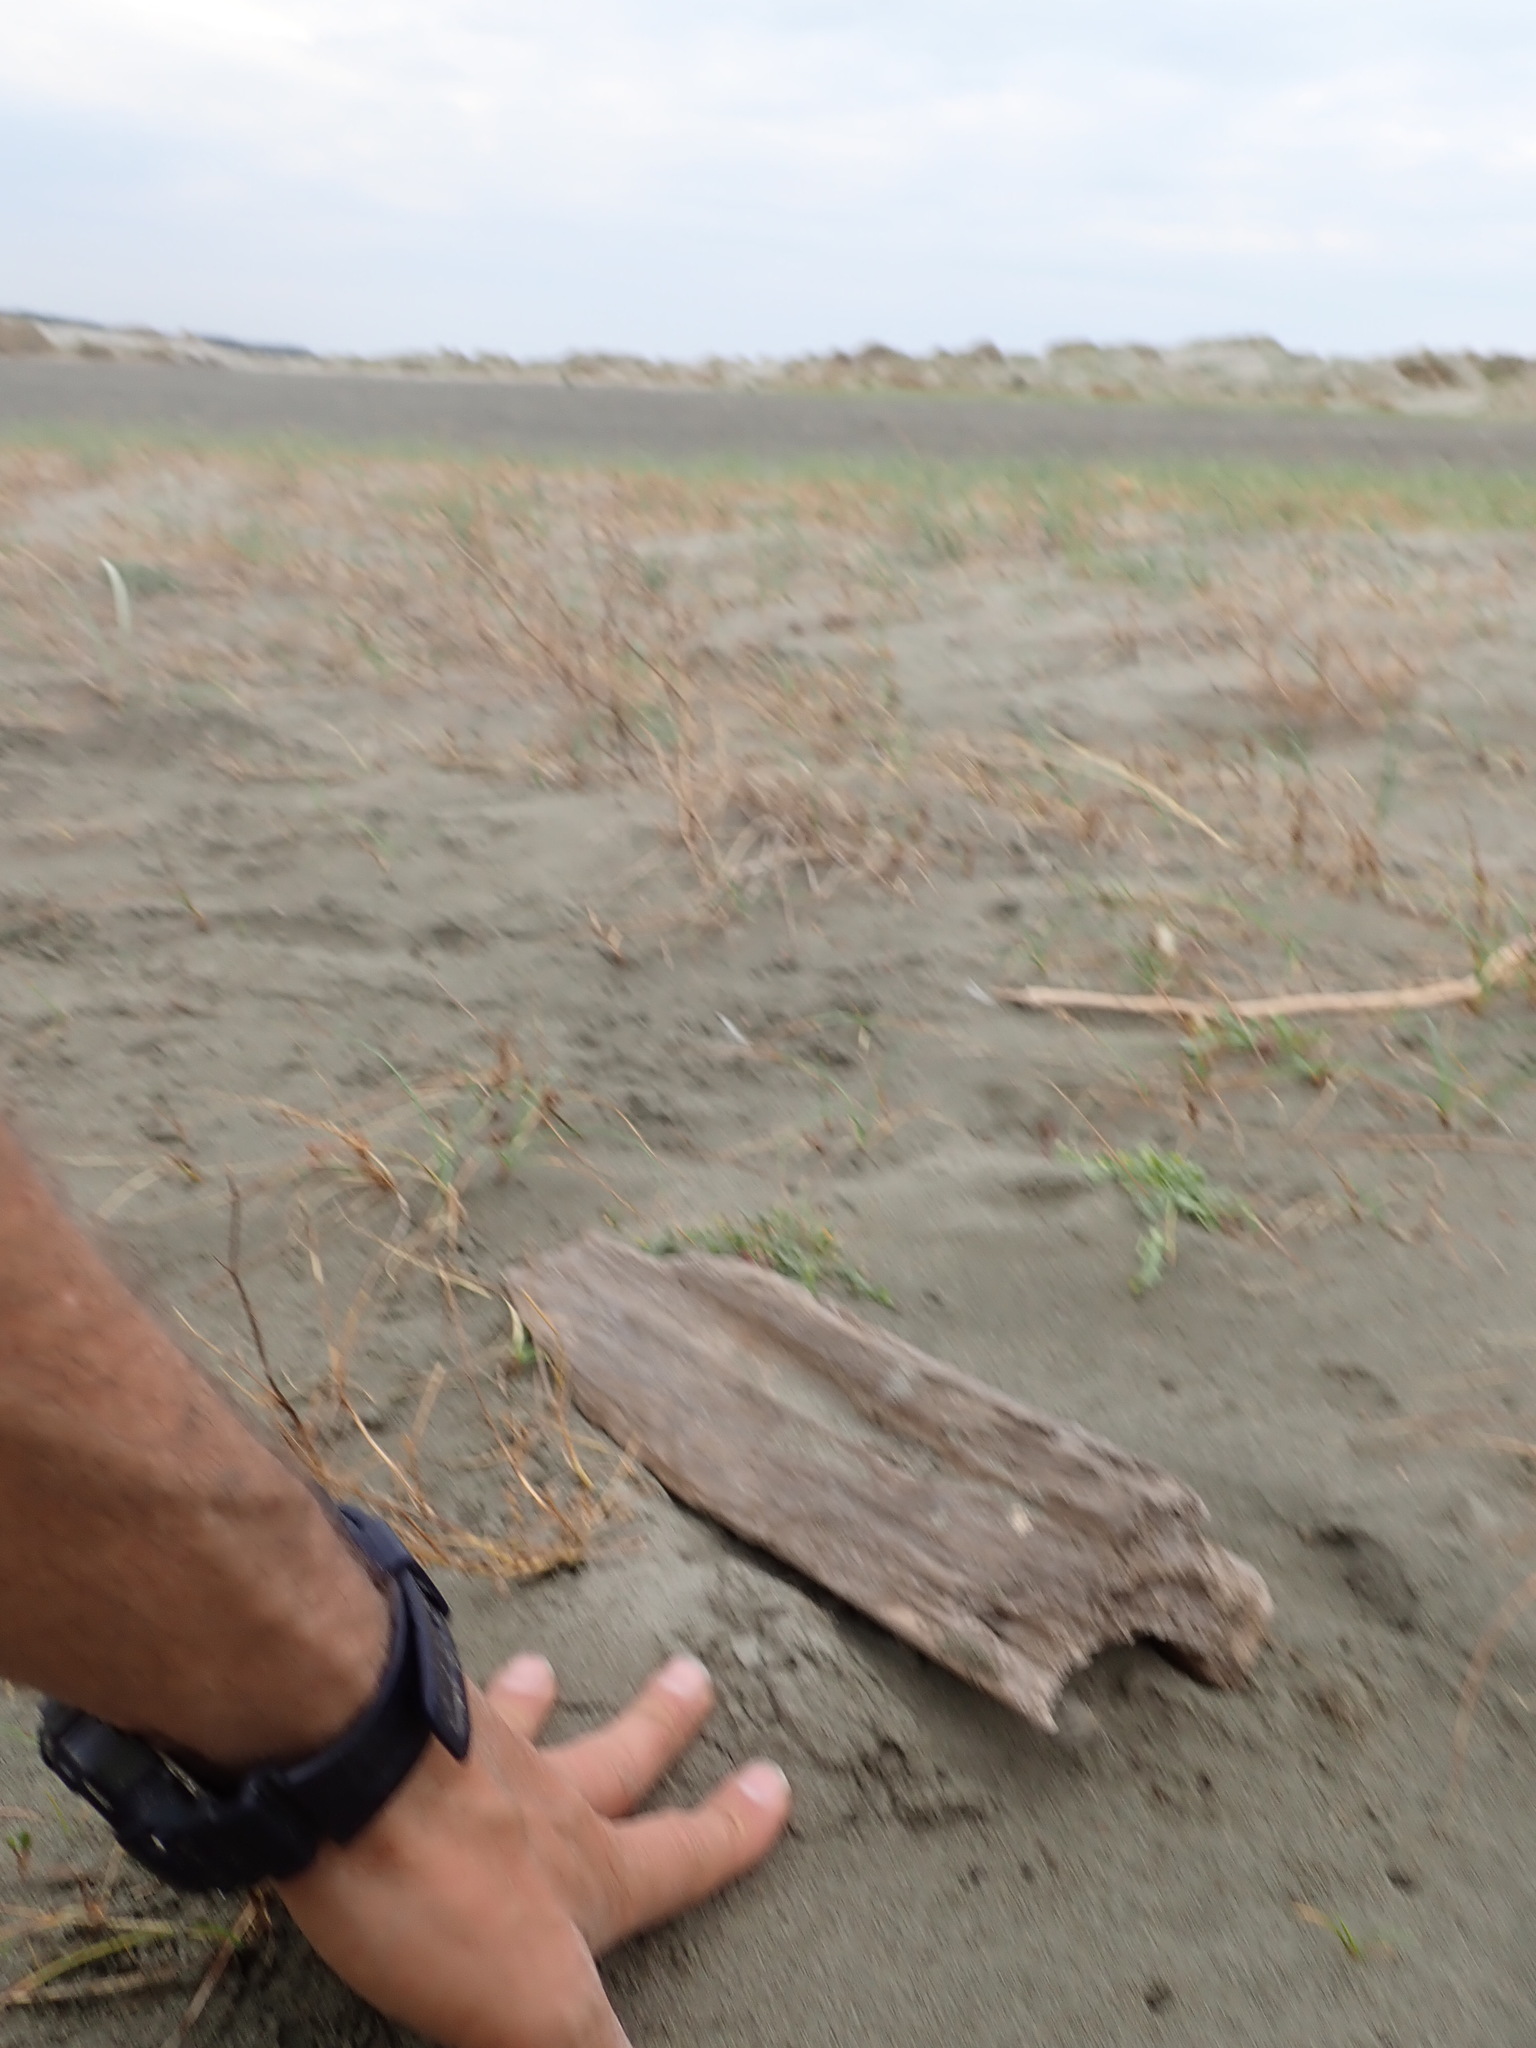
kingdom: Animalia
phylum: Arthropoda
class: Arachnida
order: Araneae
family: Theridiidae
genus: Latrodectus
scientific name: Latrodectus katipo
